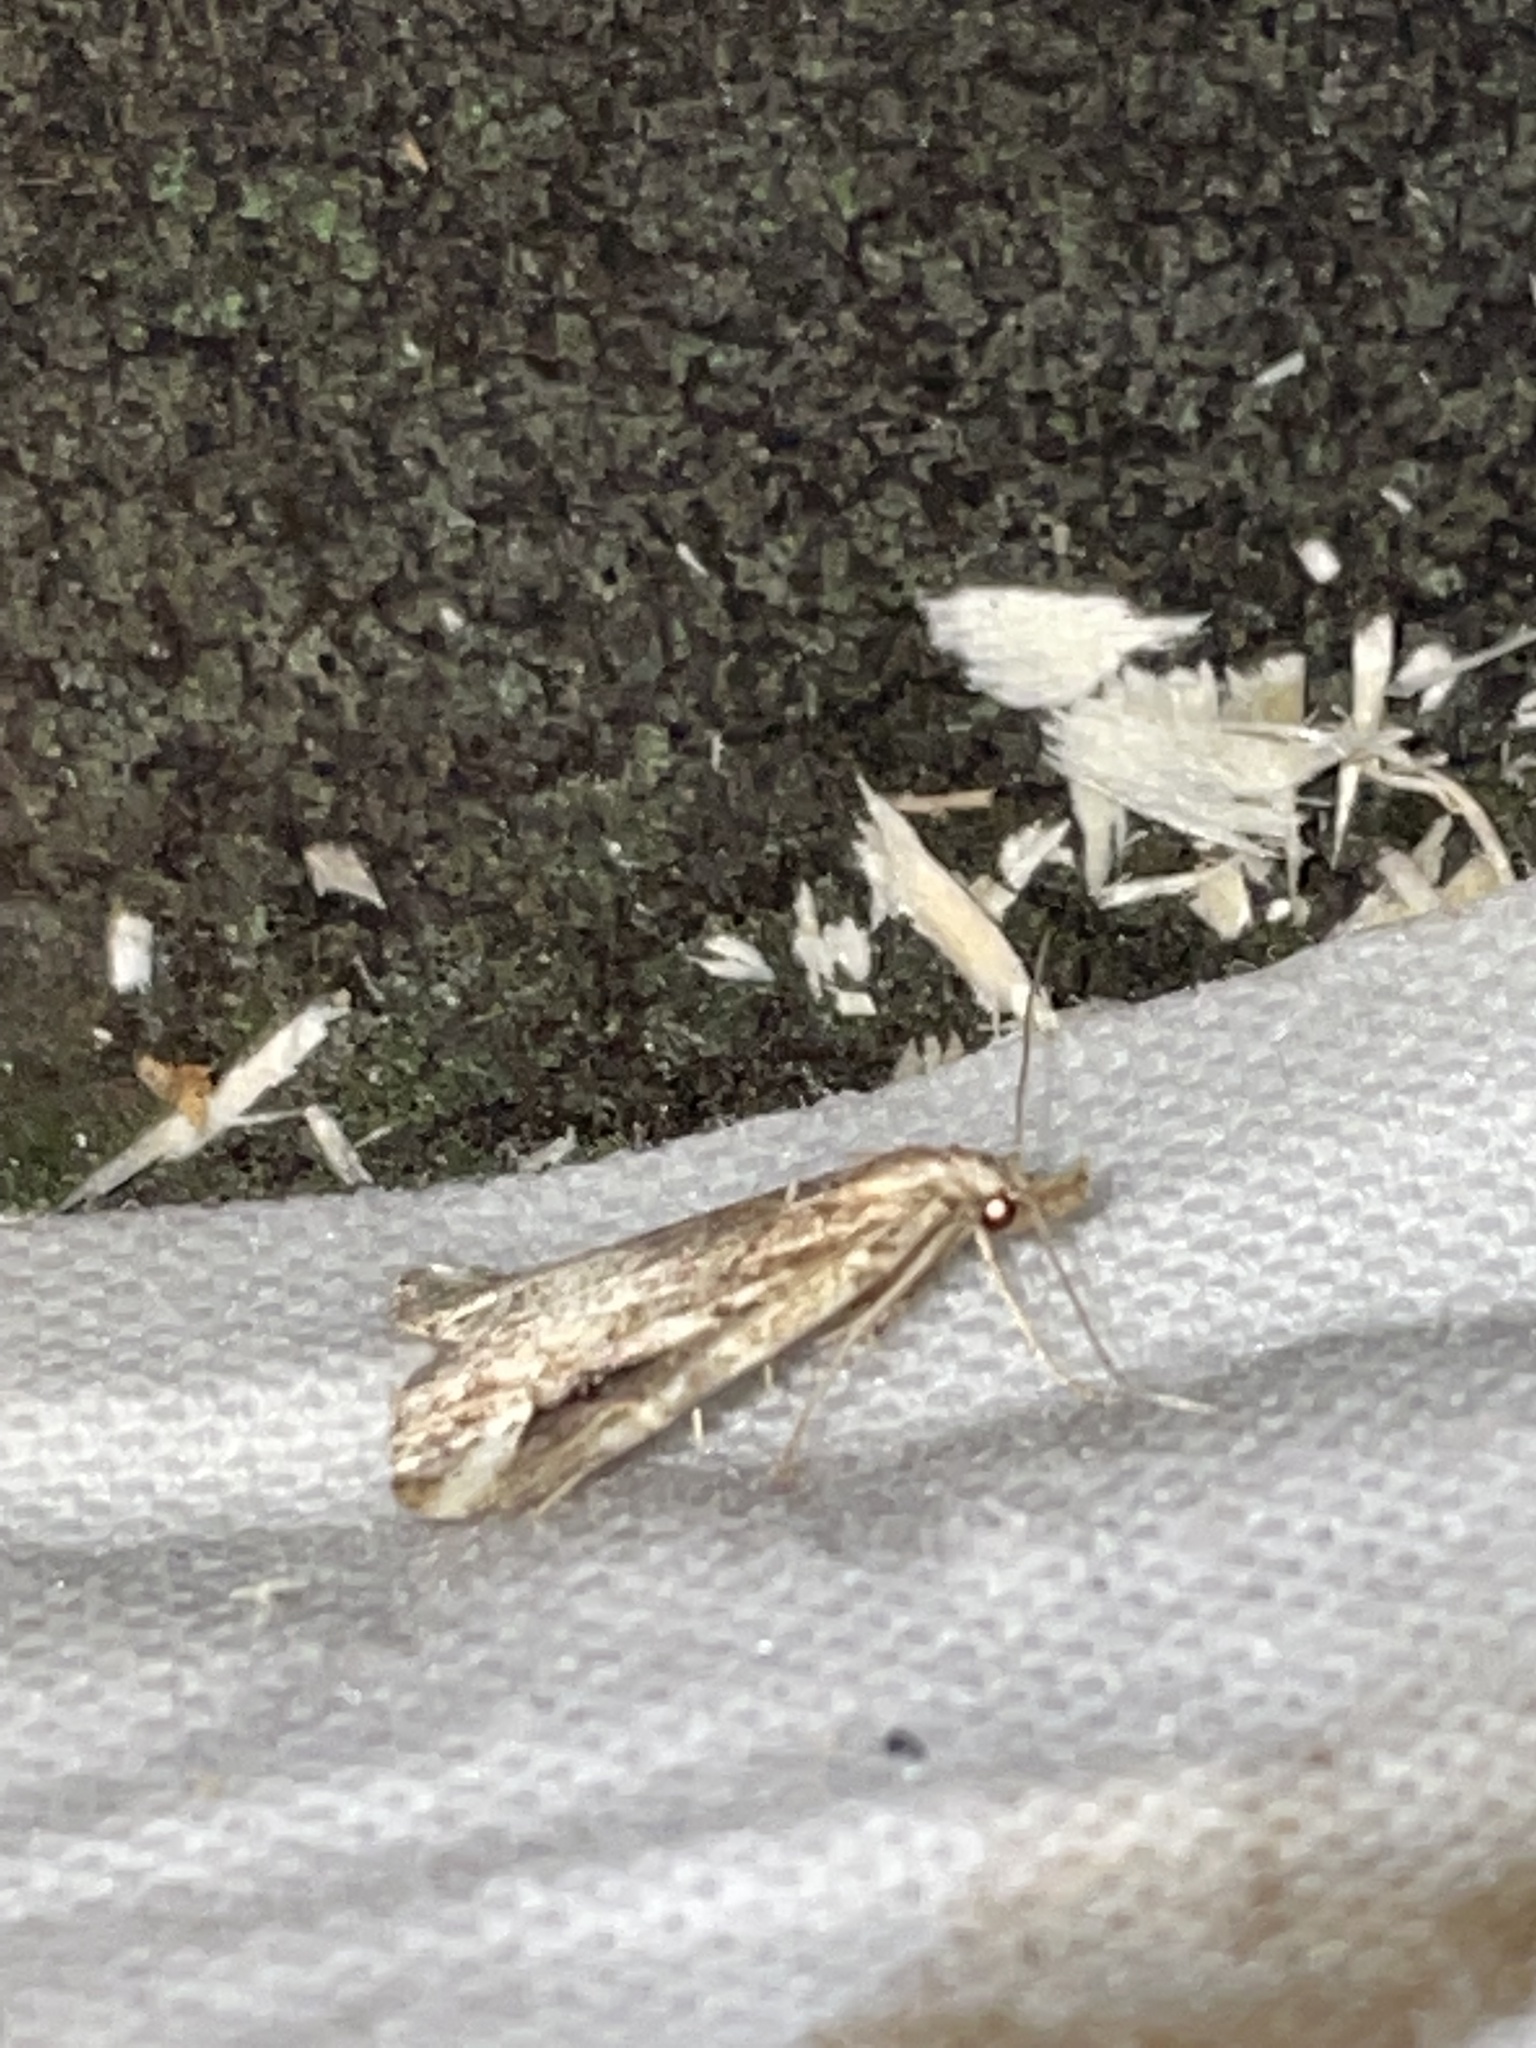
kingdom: Animalia
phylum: Arthropoda
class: Insecta
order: Lepidoptera
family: Erebidae
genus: Schrankia
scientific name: Schrankia costaestrigalis
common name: Pinion-streaked snout
